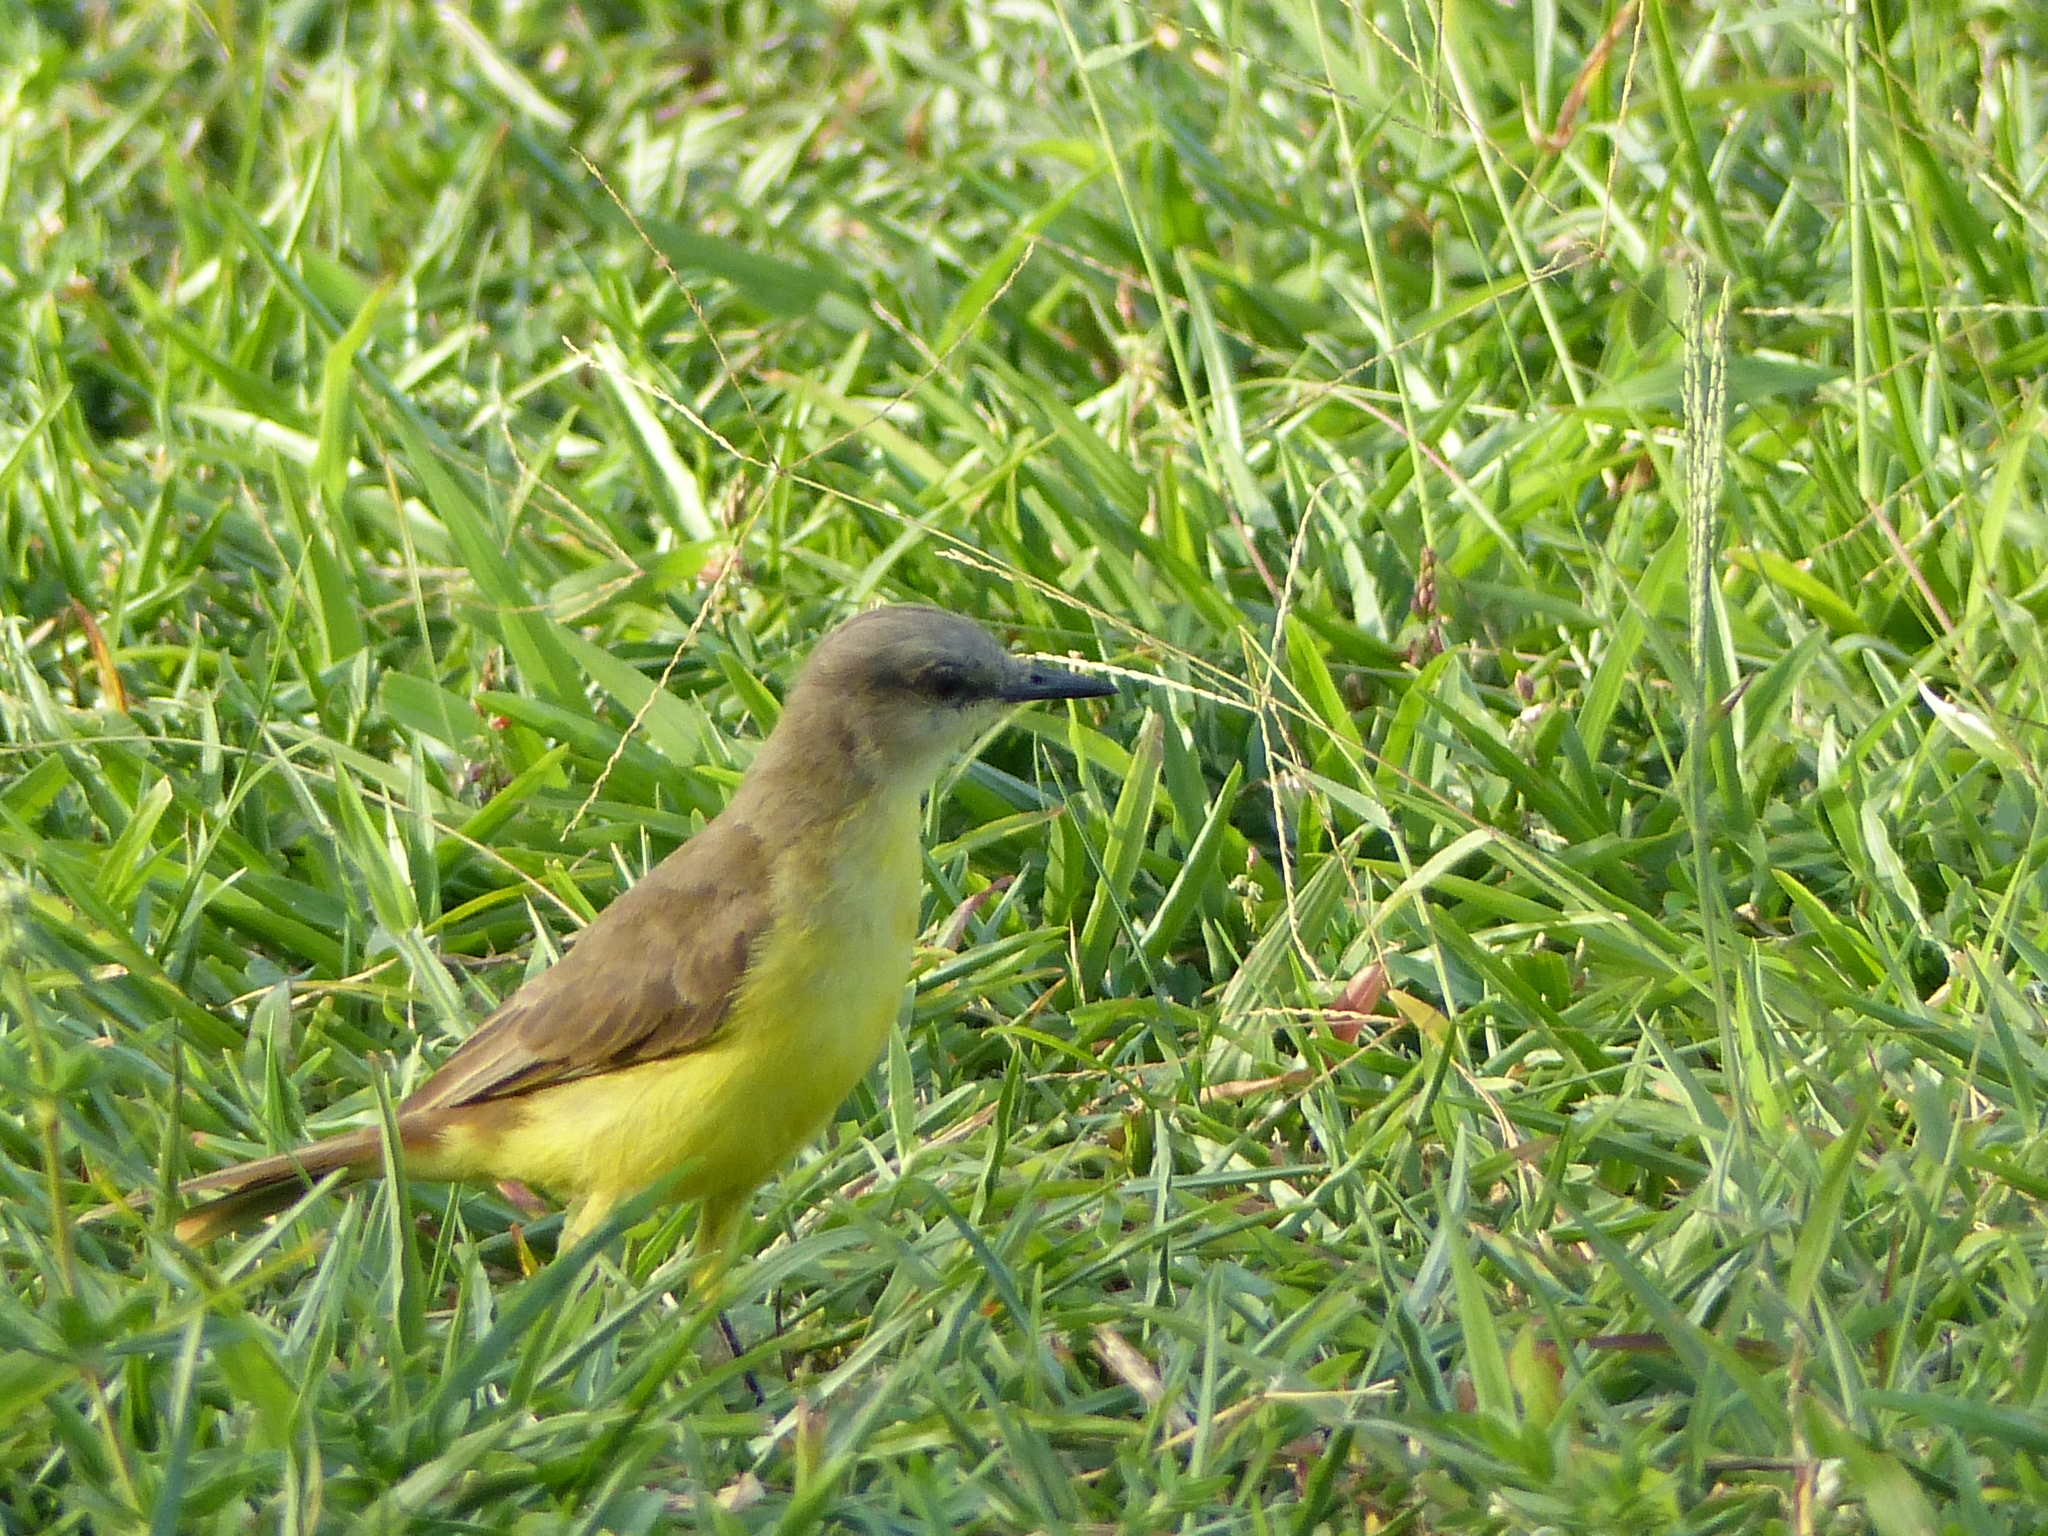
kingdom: Animalia
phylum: Chordata
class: Aves
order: Passeriformes
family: Tyrannidae
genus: Machetornis
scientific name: Machetornis rixosa
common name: Cattle tyrant
